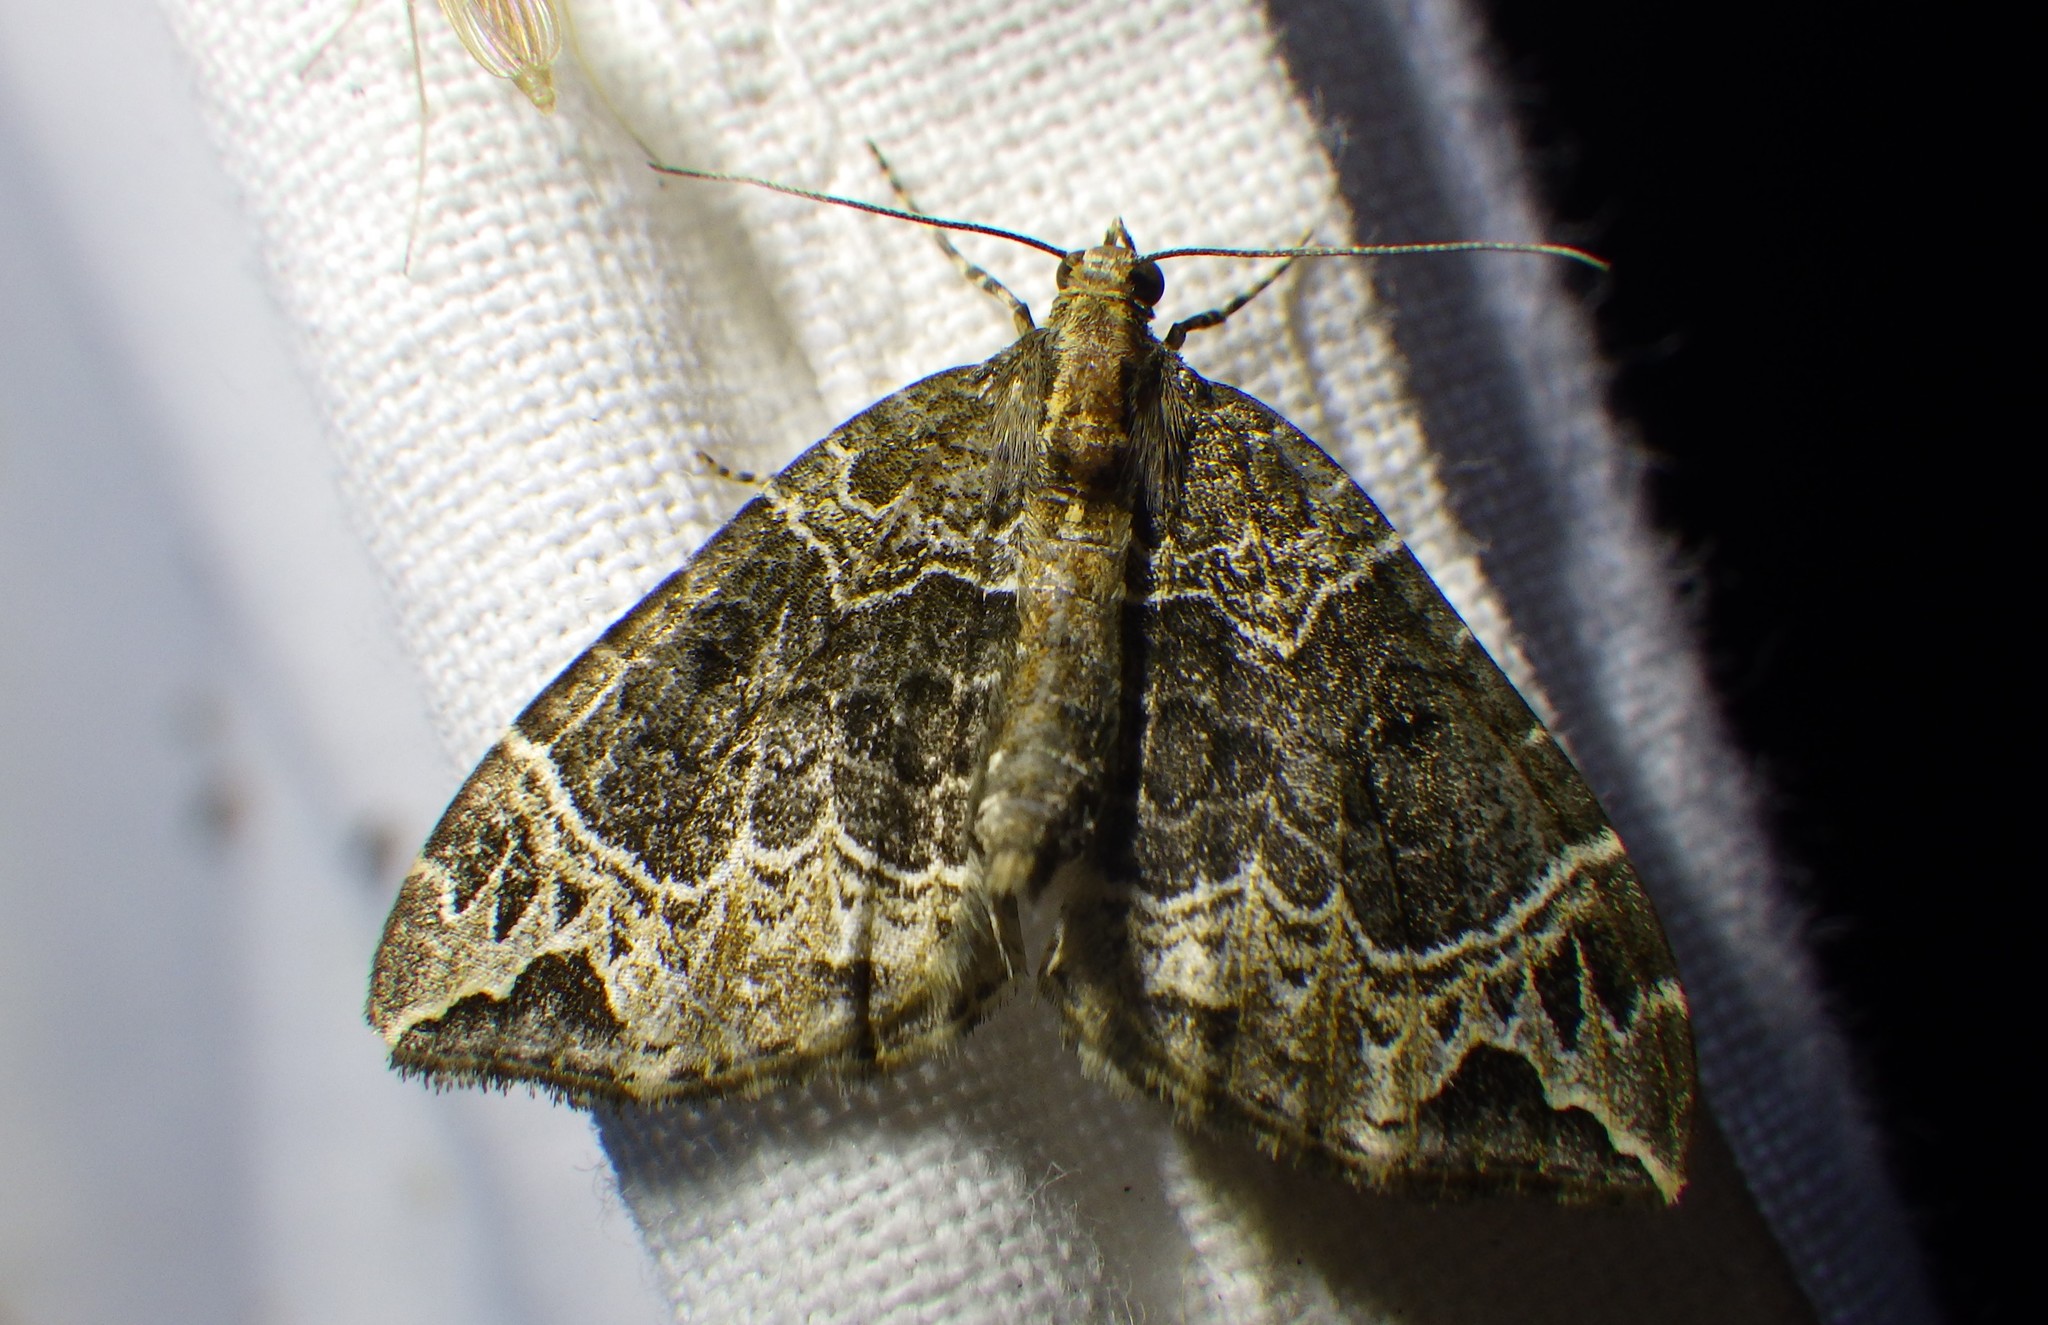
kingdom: Animalia
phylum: Arthropoda
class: Insecta
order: Lepidoptera
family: Geometridae
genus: Ecliptopera
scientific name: Ecliptopera silaceata
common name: Small phoenix
